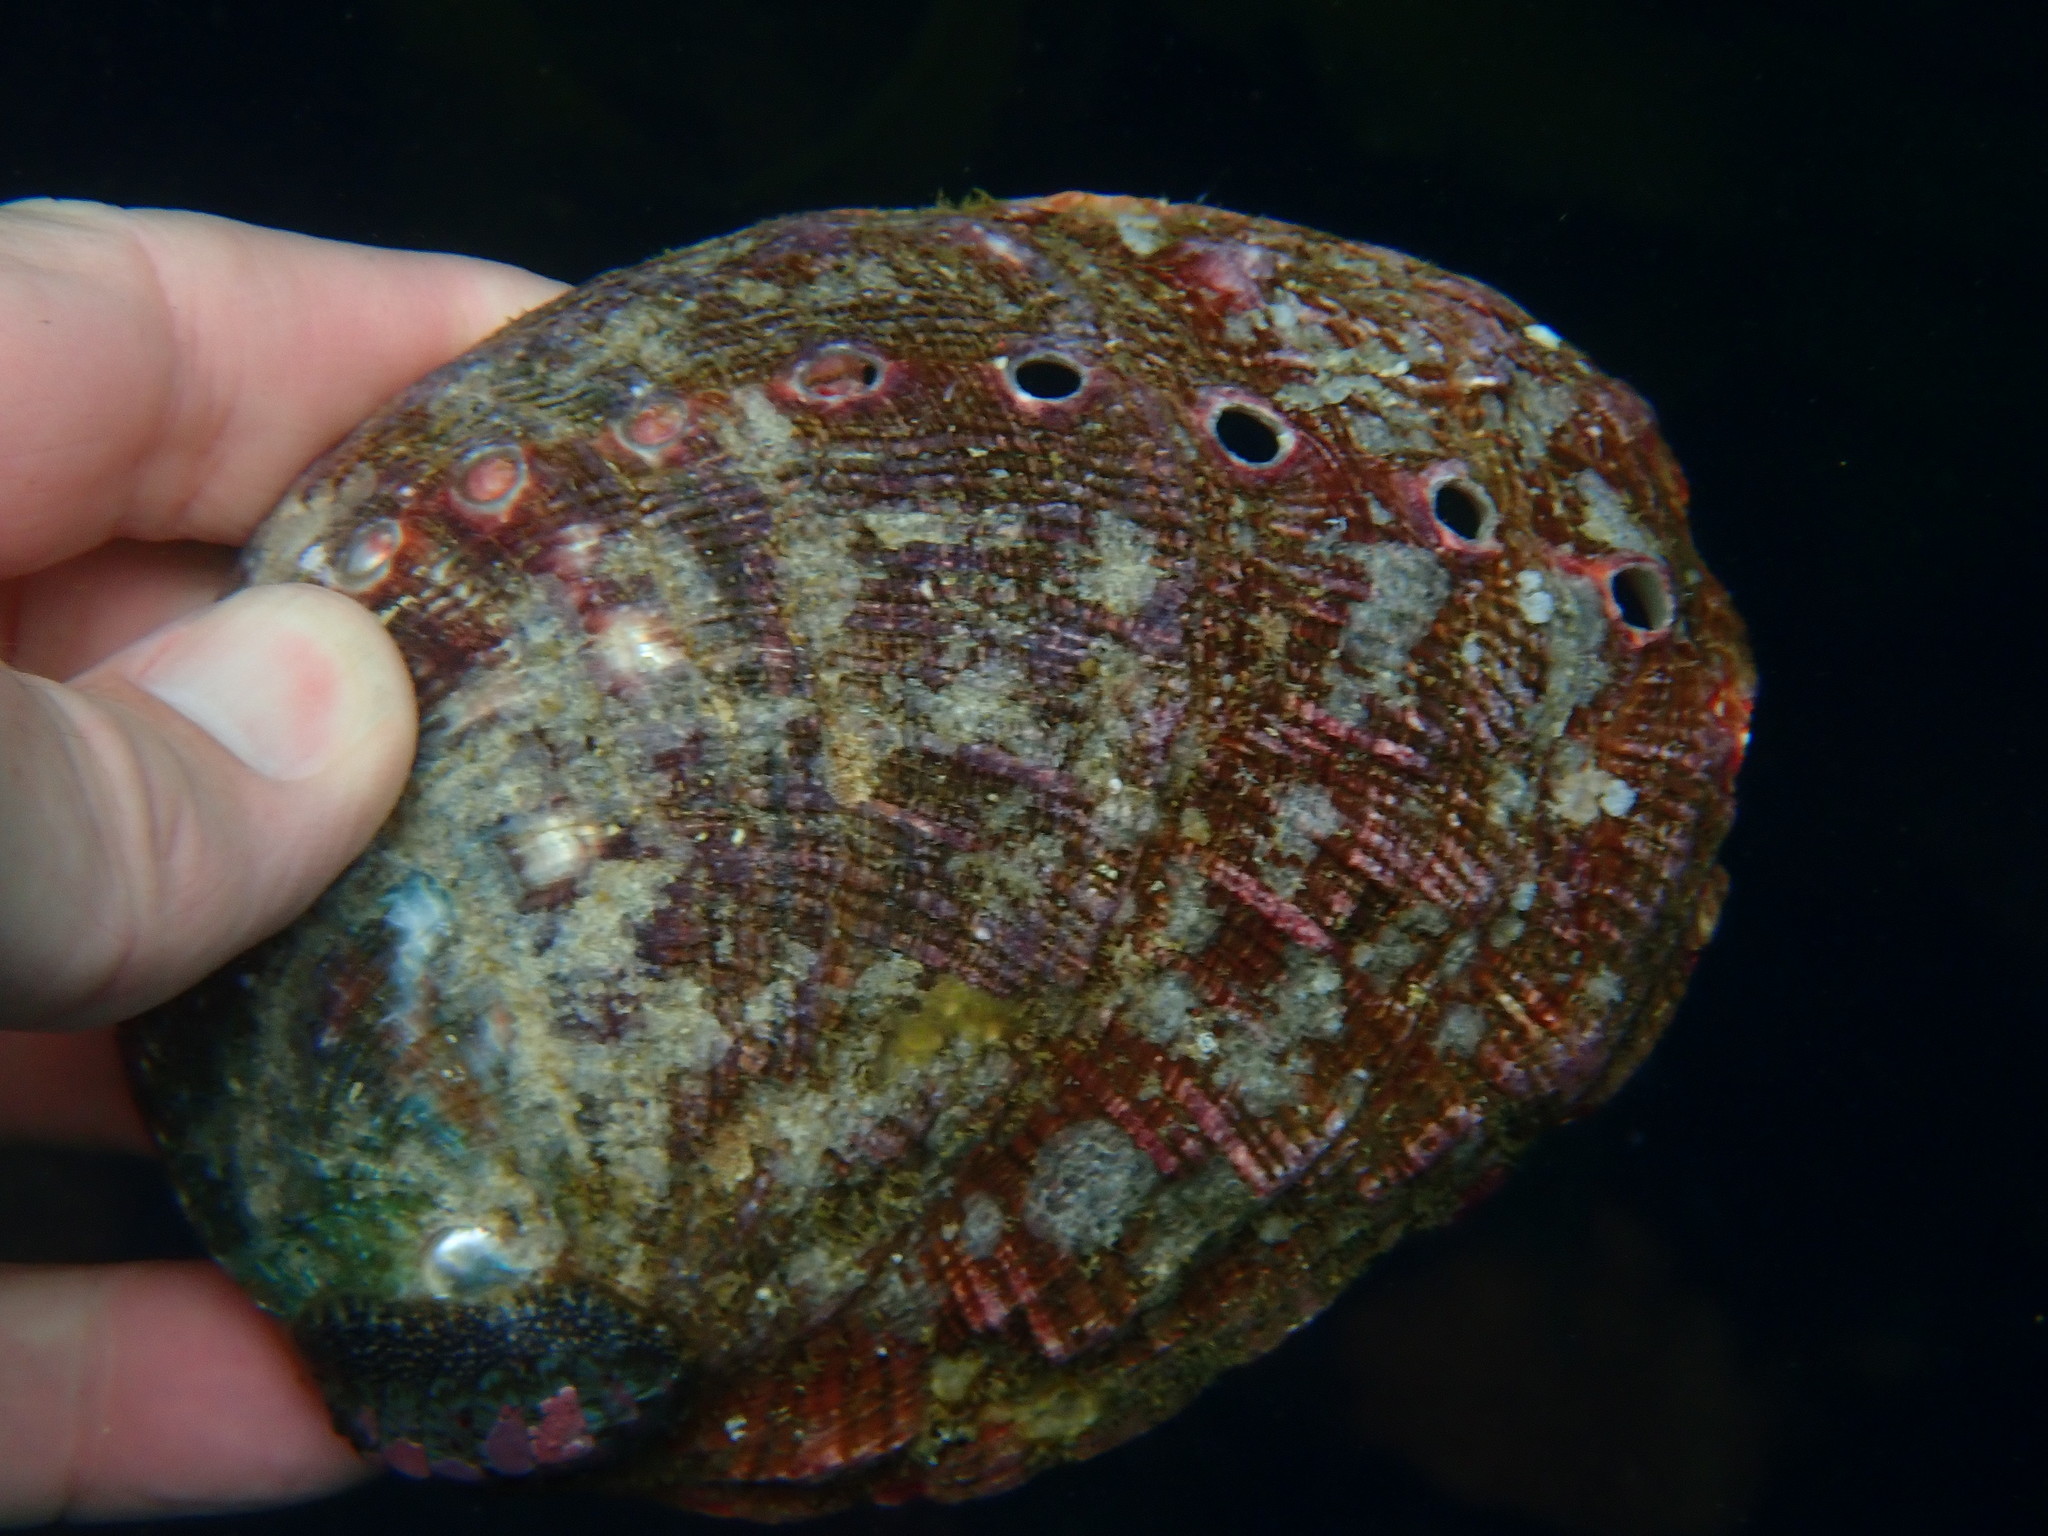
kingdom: Animalia
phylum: Mollusca
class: Gastropoda
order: Lepetellida
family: Haliotidae
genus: Haliotis
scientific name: Haliotis rufescens
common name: Red abalone
